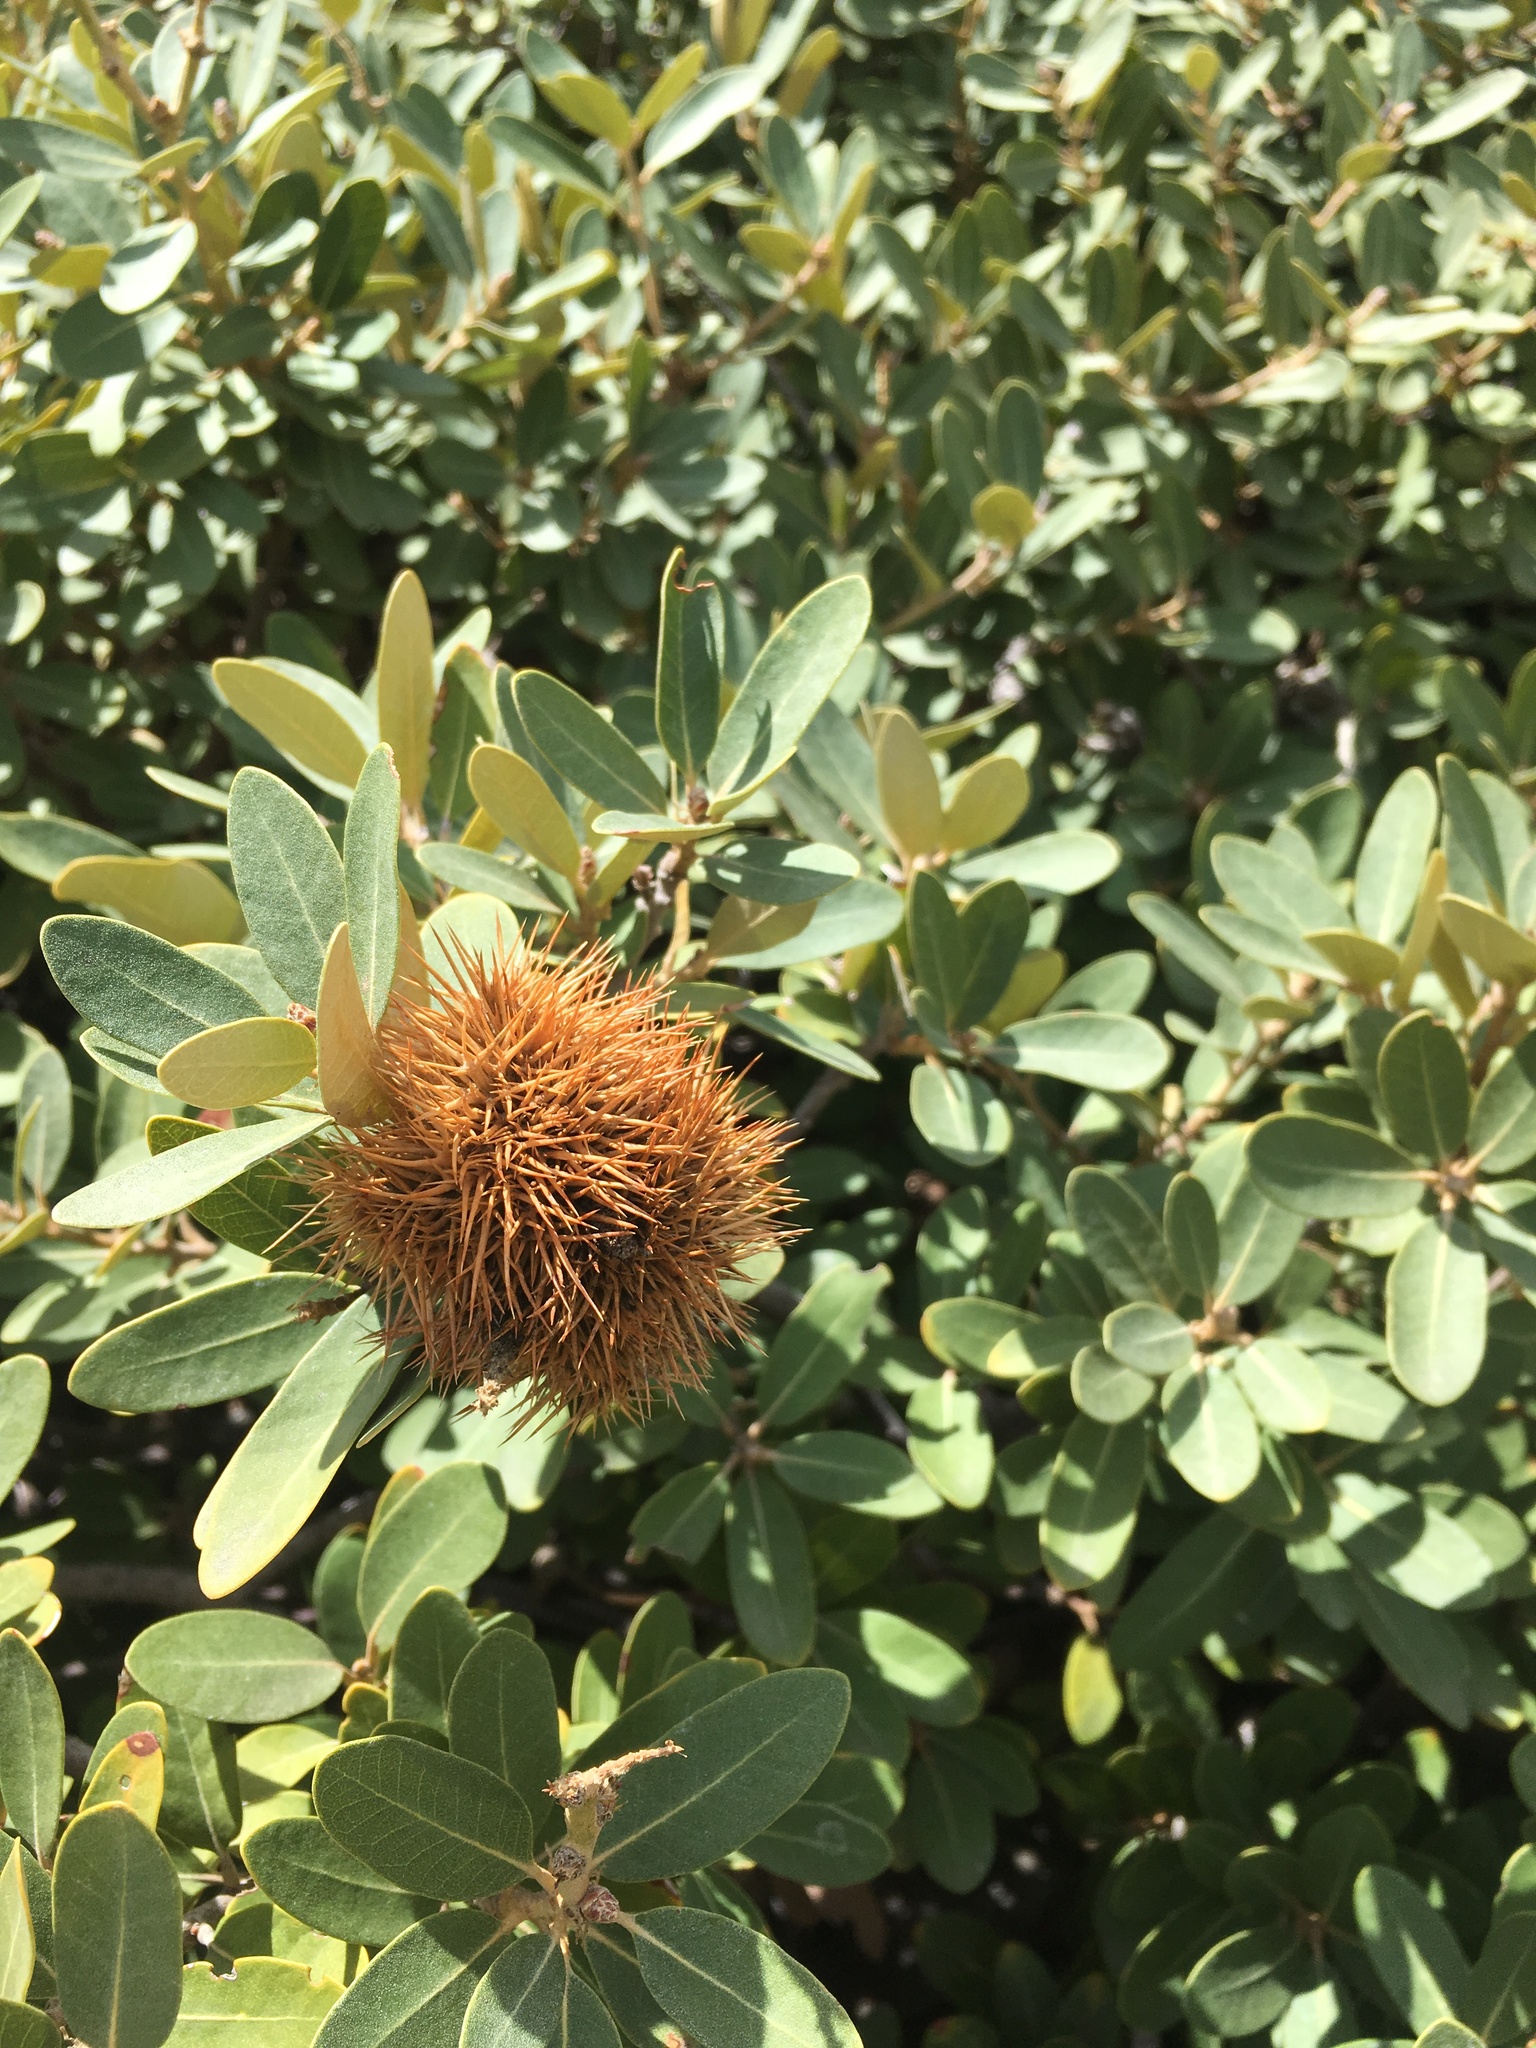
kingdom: Plantae
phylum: Tracheophyta
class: Magnoliopsida
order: Fagales
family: Fagaceae
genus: Chrysolepis
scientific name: Chrysolepis sempervirens
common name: Bush chinquapin
